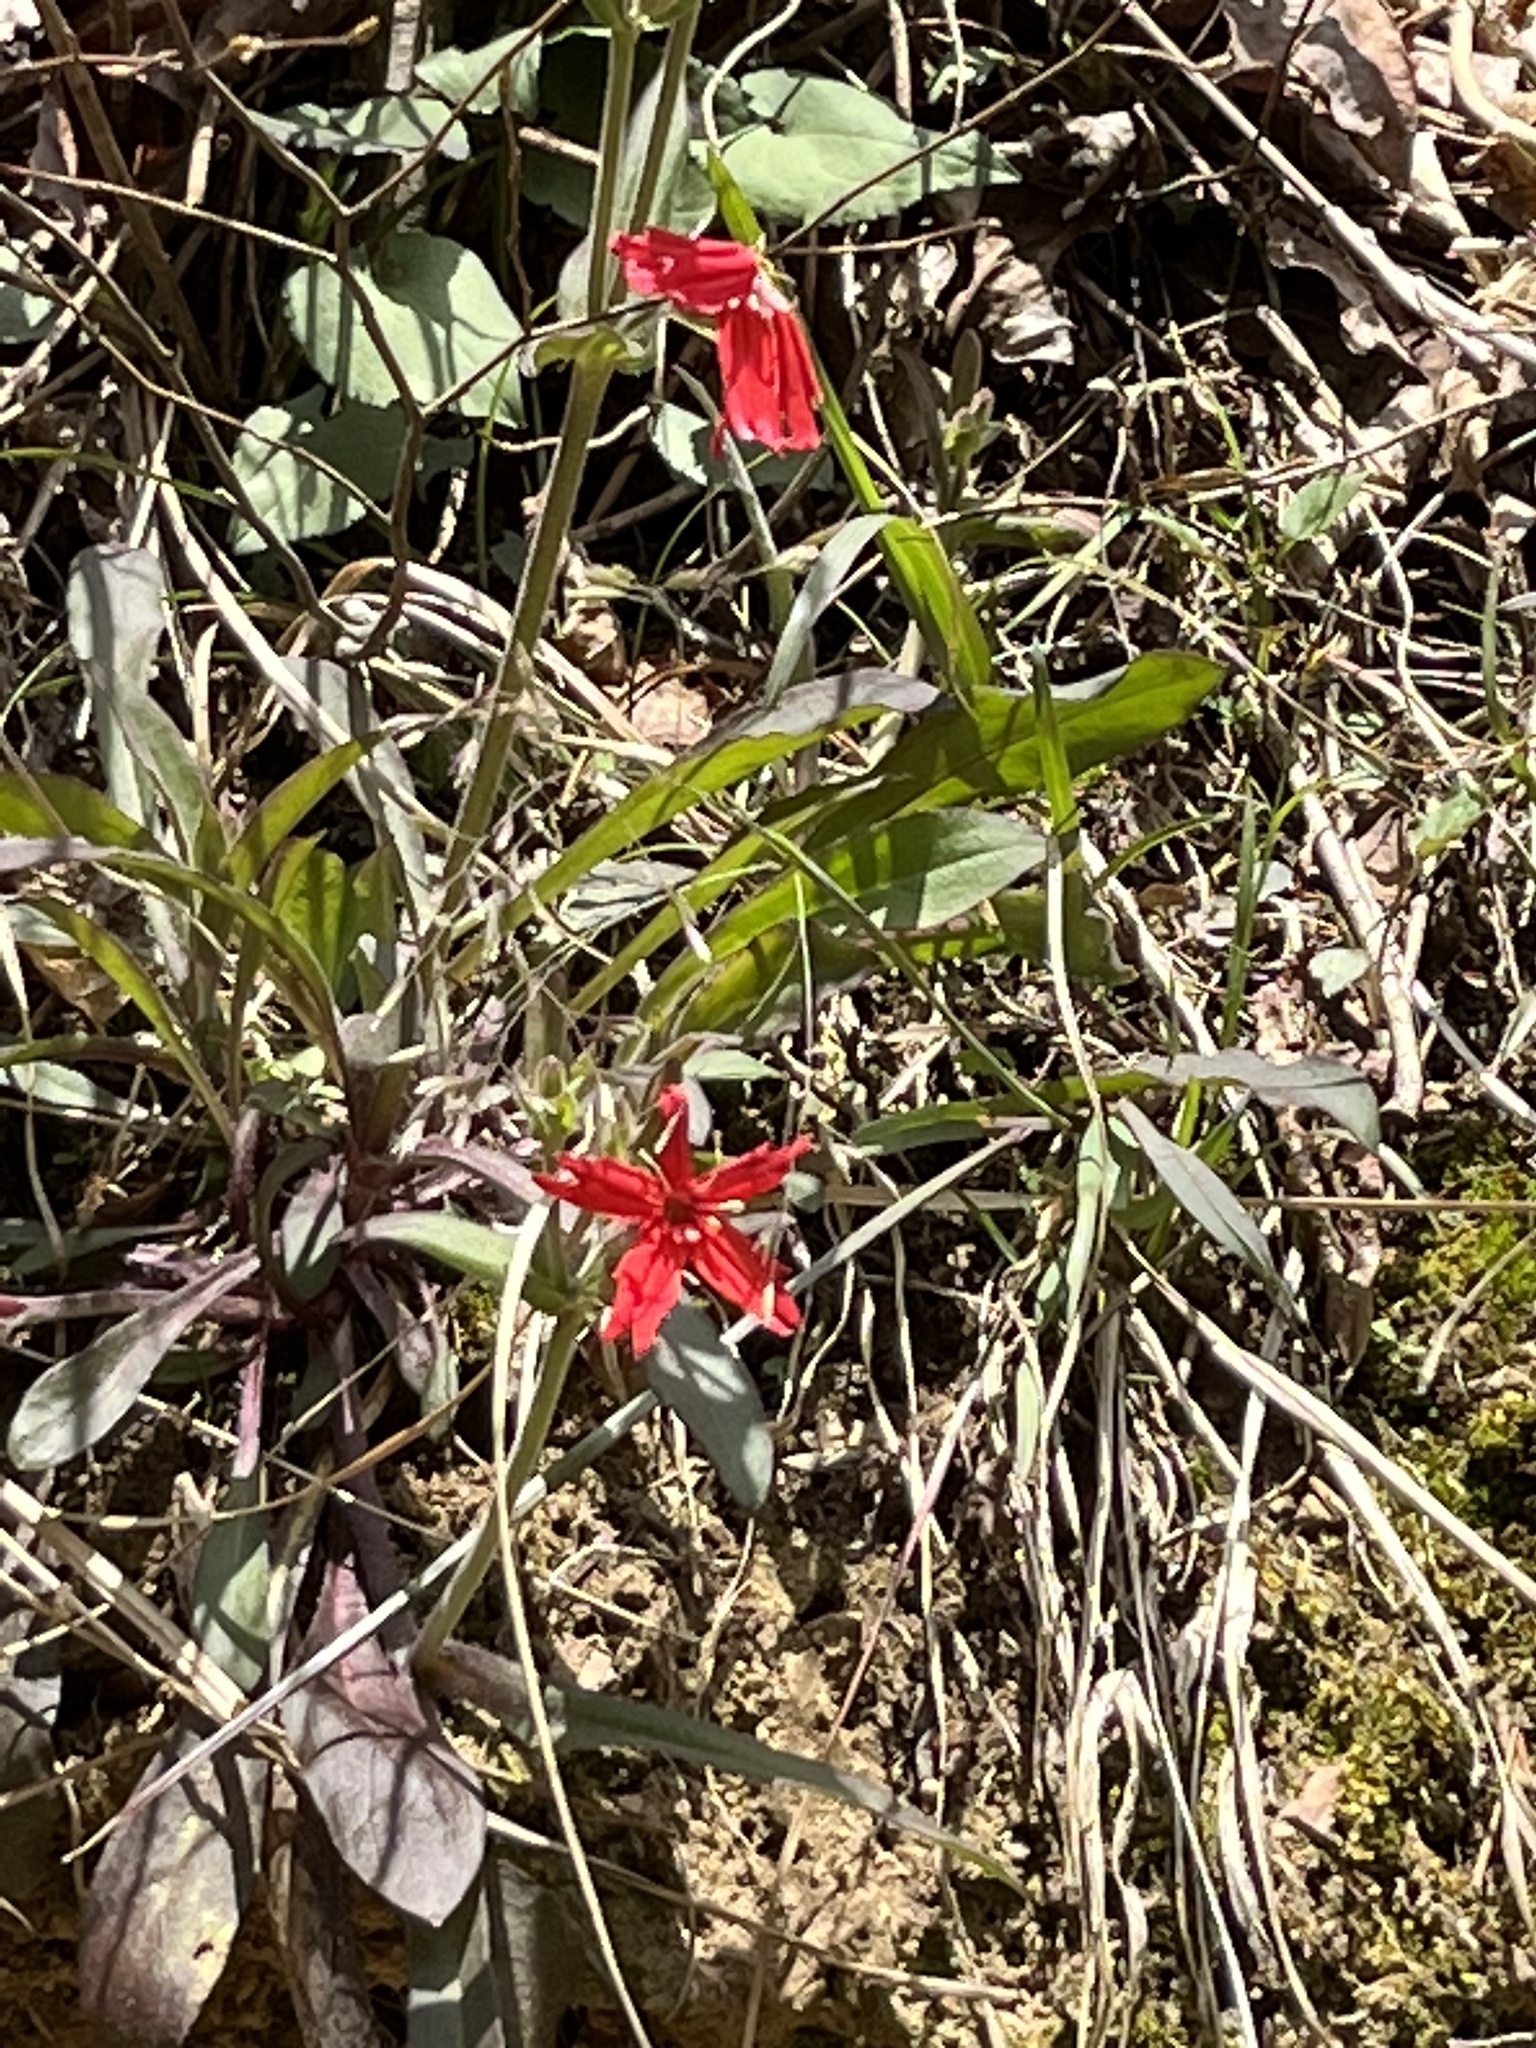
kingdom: Plantae
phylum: Tracheophyta
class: Magnoliopsida
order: Caryophyllales
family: Caryophyllaceae
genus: Silene
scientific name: Silene virginica
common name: Fire-pink
